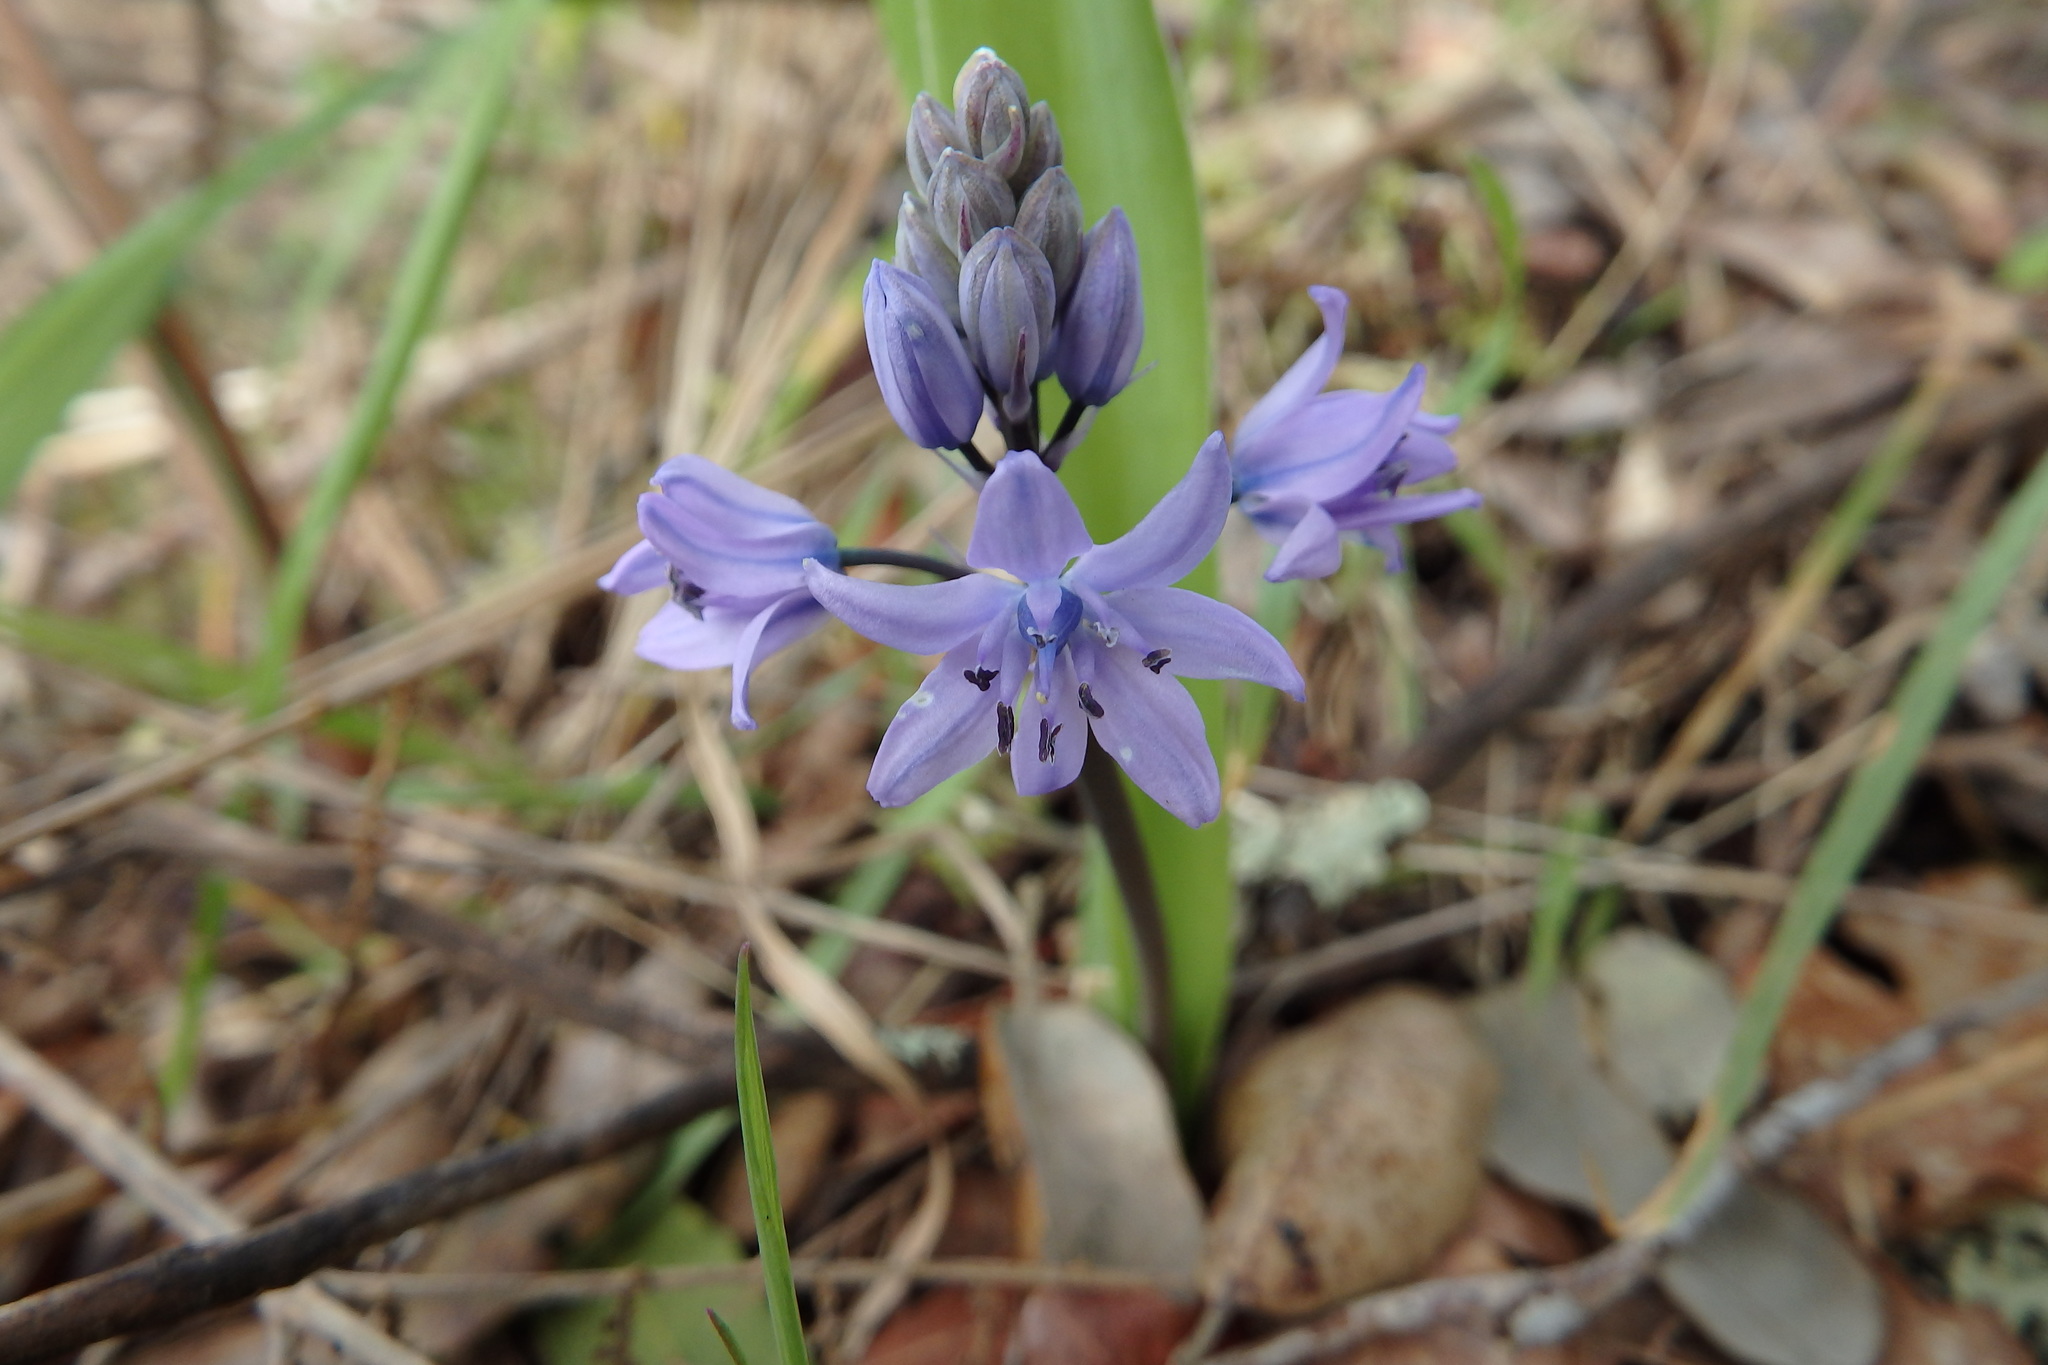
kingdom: Plantae
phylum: Tracheophyta
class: Liliopsida
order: Asparagales
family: Asparagaceae
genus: Scilla
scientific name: Scilla monophyllos
